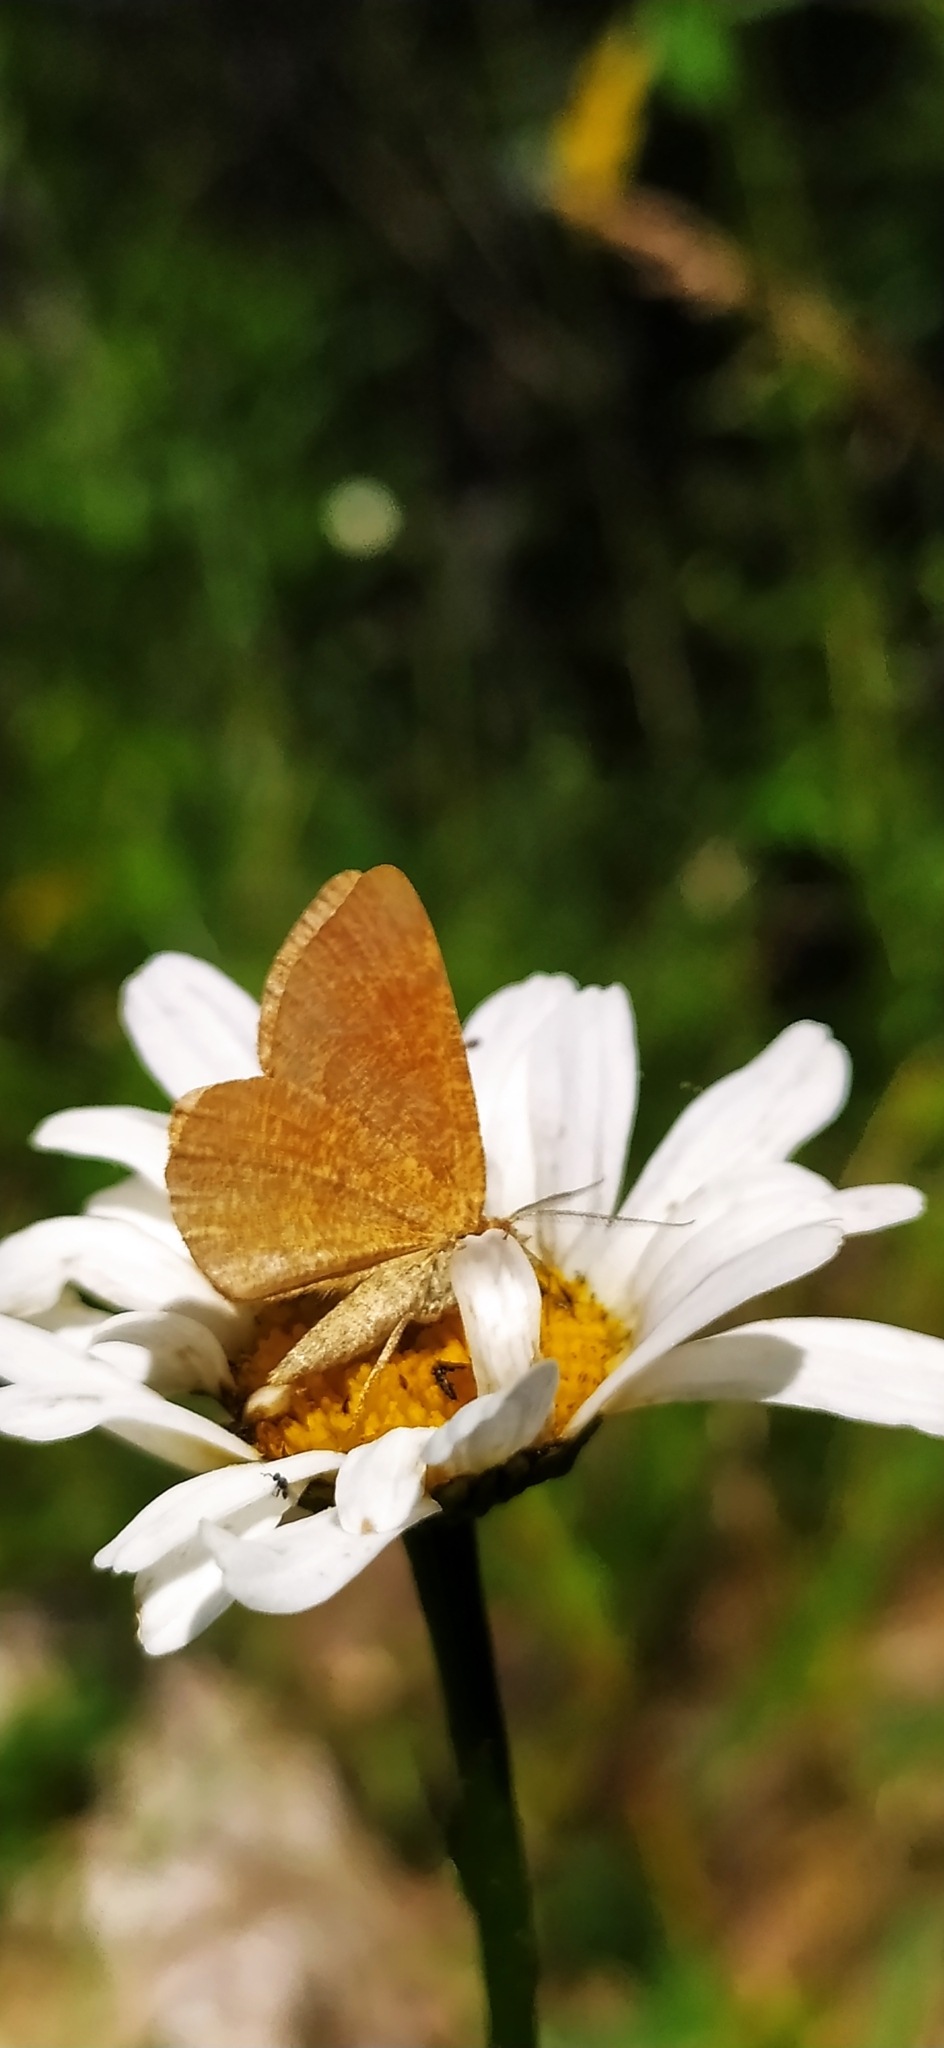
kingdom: Animalia
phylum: Arthropoda
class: Insecta
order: Lepidoptera
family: Geometridae
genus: Macaria
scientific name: Macaria brunneata
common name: Rannoch looper
